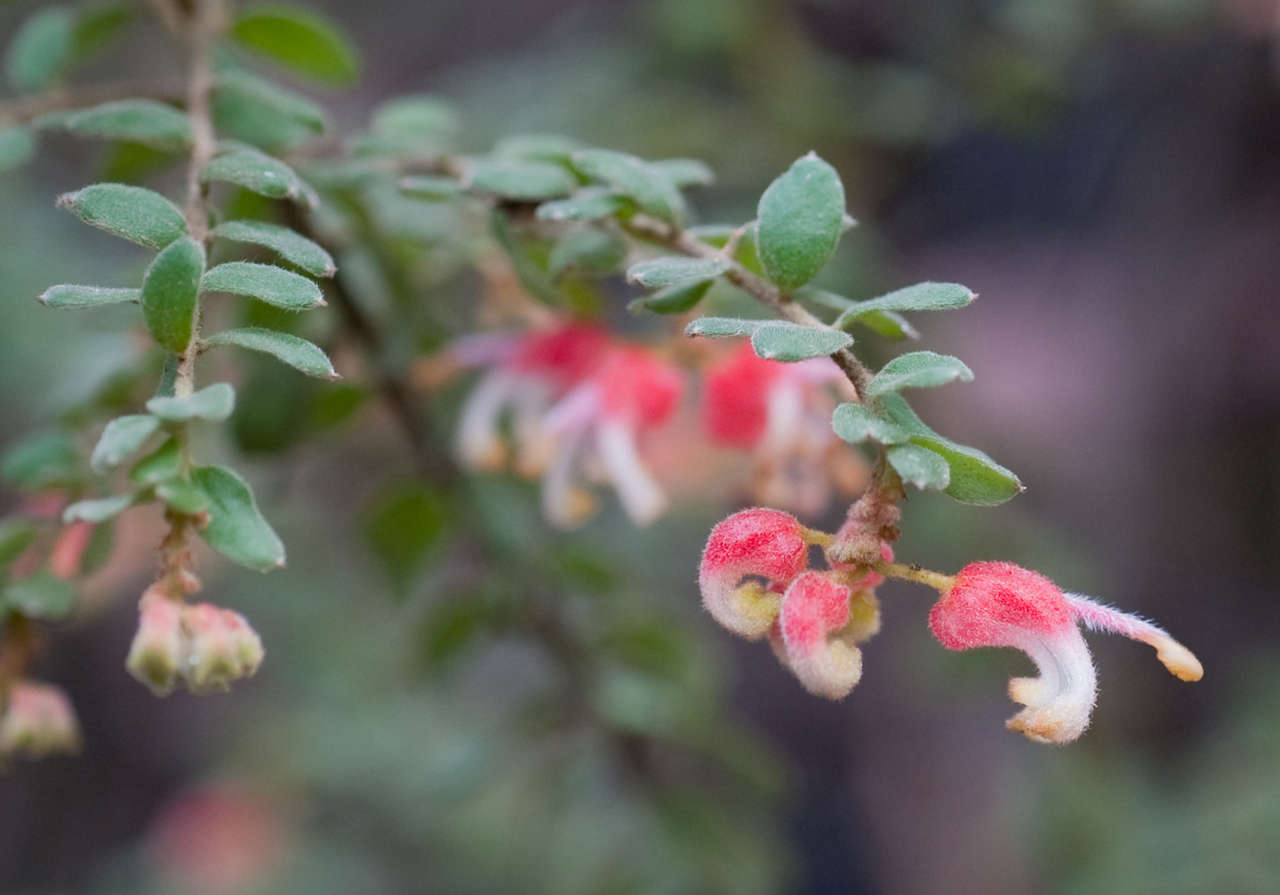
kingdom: Plantae
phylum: Tracheophyta
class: Magnoliopsida
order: Proteales
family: Proteaceae
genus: Grevillea
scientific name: Grevillea alpina
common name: Catclaws grevillea
